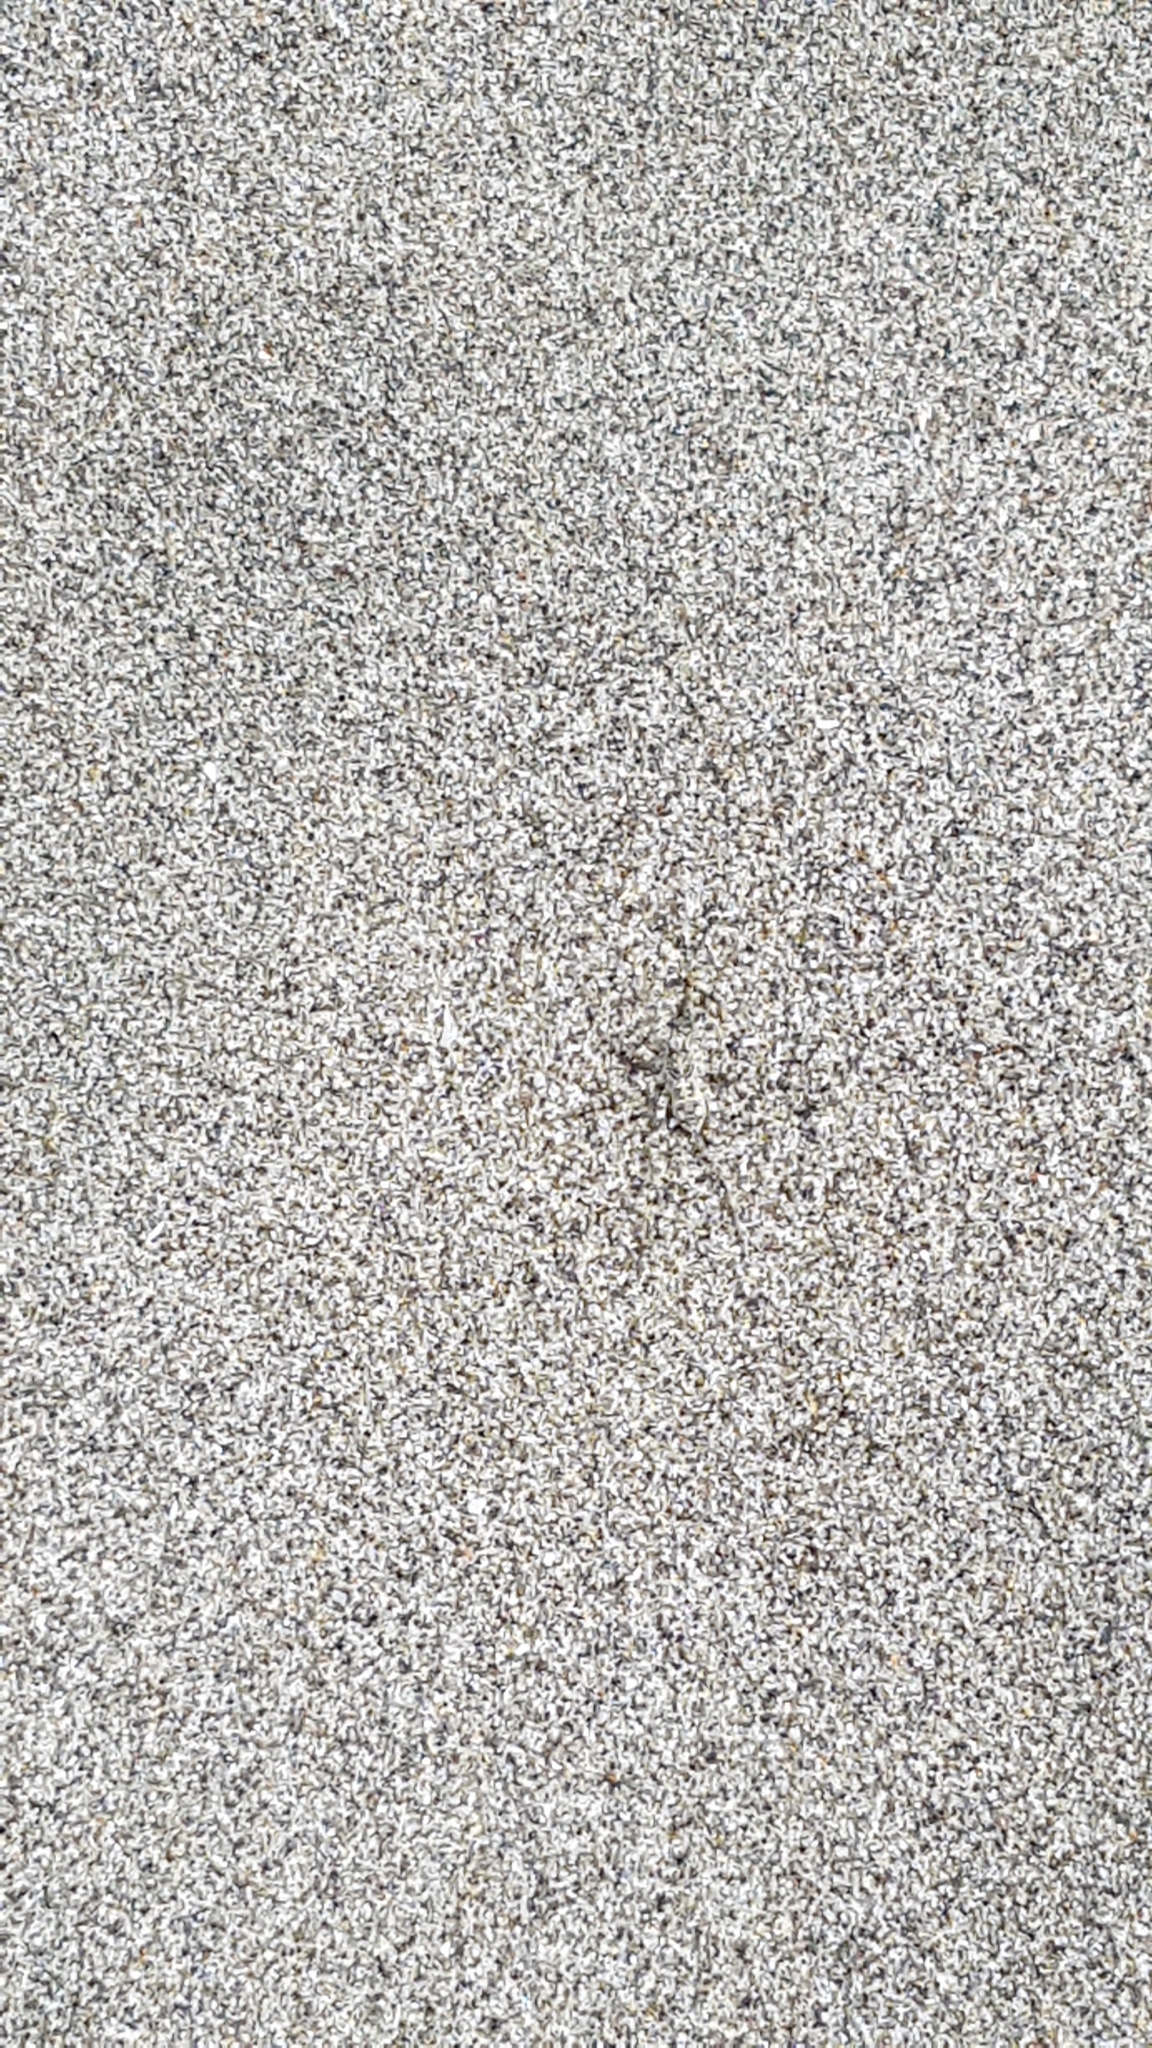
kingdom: Animalia
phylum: Arthropoda
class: Arachnida
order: Araneae
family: Lycosidae
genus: Anoteropsis
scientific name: Anoteropsis litoralis
